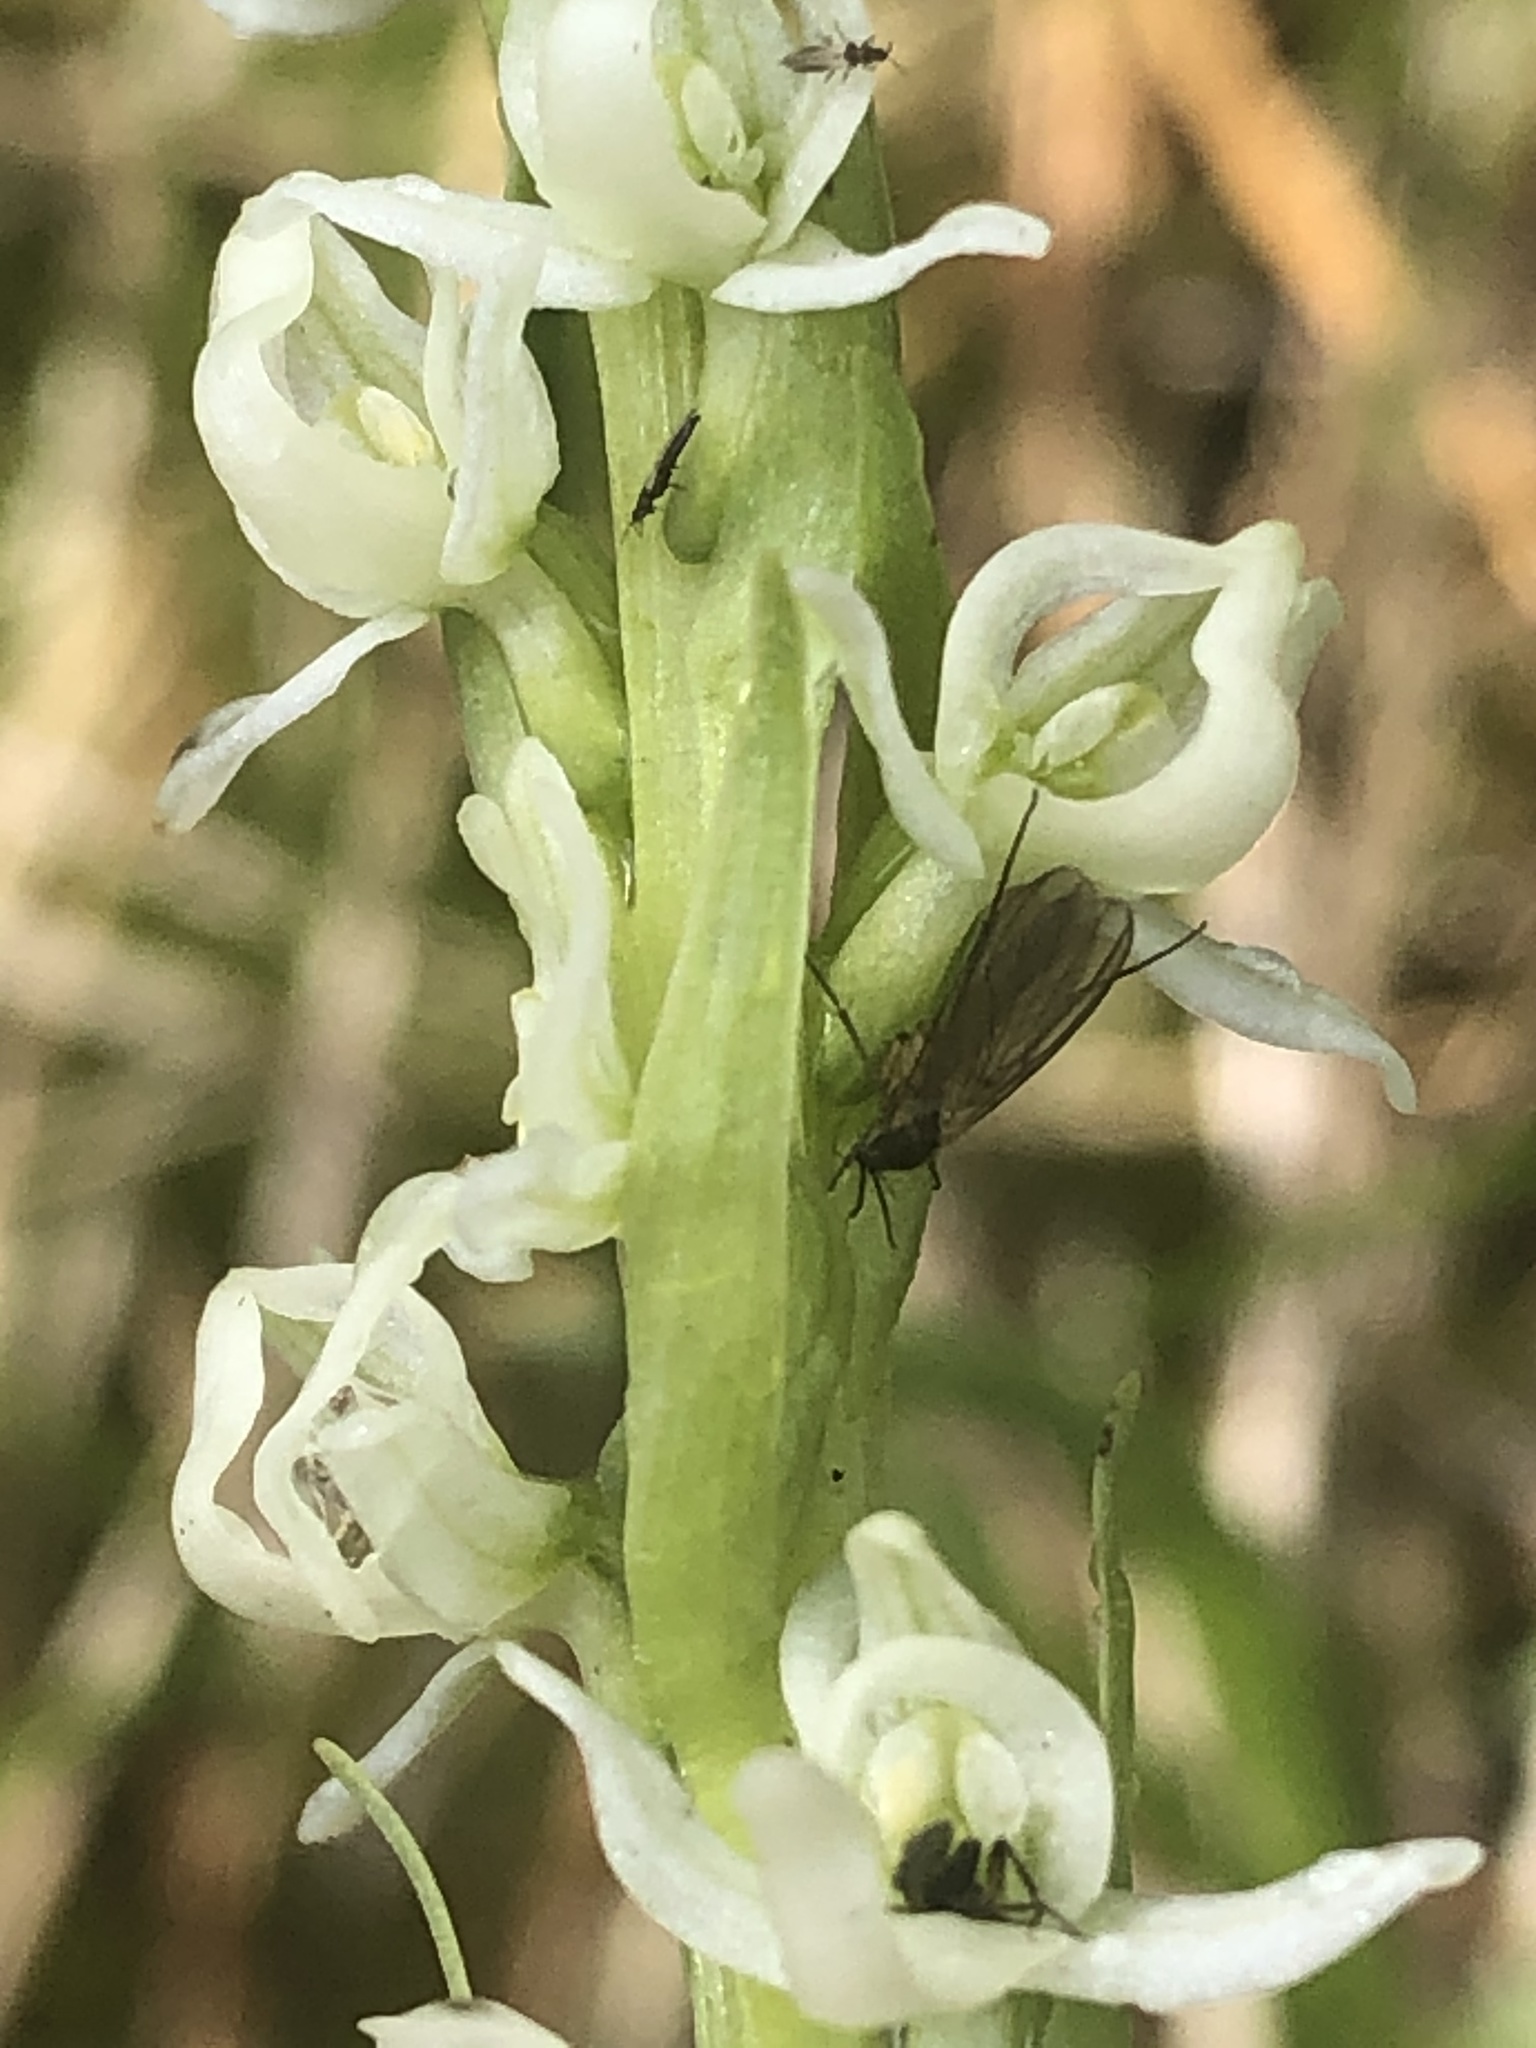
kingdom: Plantae
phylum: Tracheophyta
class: Liliopsida
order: Asparagales
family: Orchidaceae
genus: Platanthera
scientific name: Platanthera dilatata
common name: Bog candles
